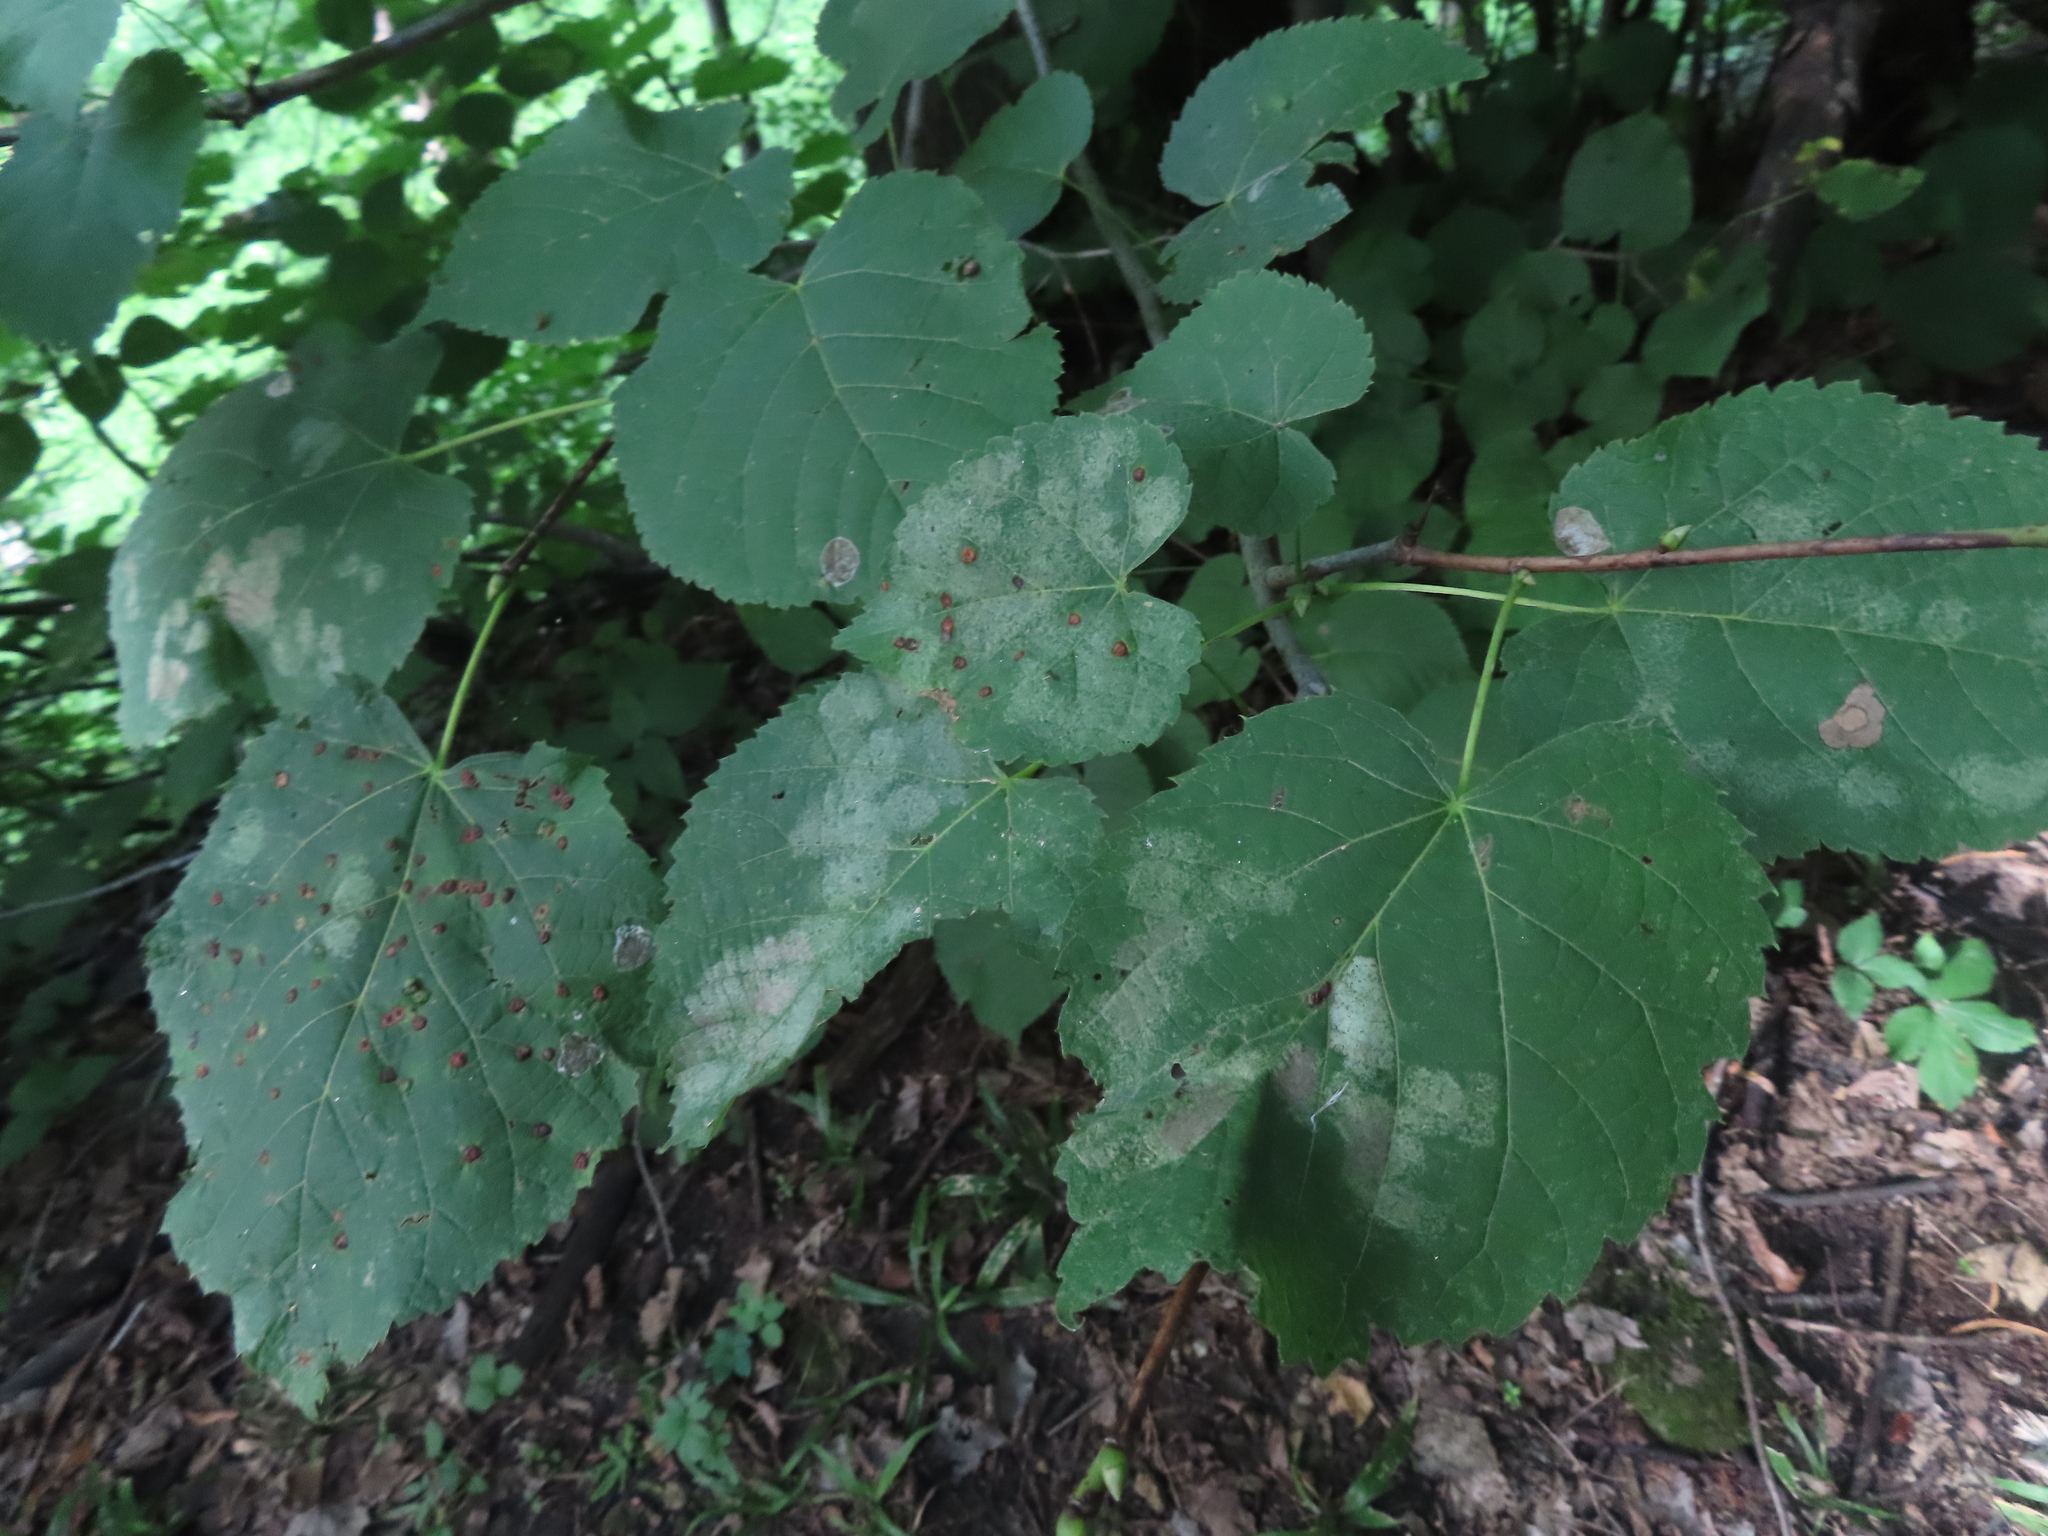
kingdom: Animalia
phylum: Arthropoda
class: Insecta
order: Hemiptera
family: Tingidae
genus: Gargaphia
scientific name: Gargaphia tiliae
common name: Basswood lace bug
